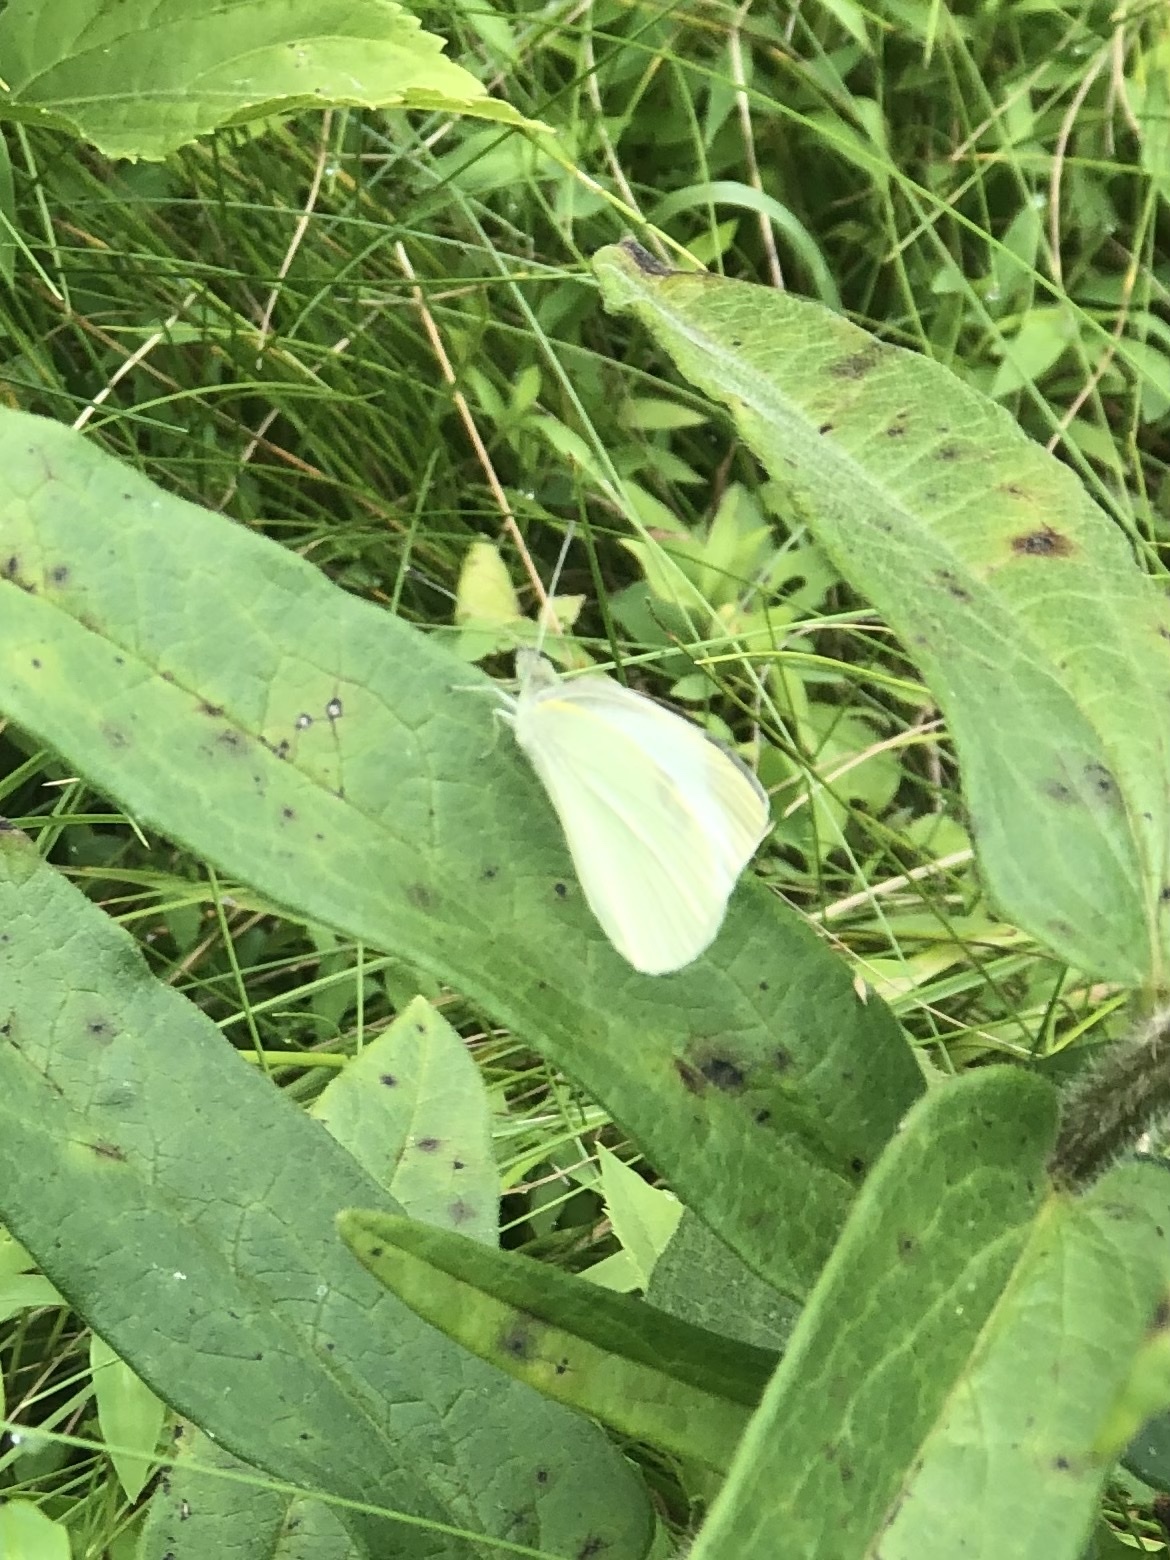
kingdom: Animalia
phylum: Arthropoda
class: Insecta
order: Lepidoptera
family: Pieridae
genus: Pieris
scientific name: Pieris rapae
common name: Small white
